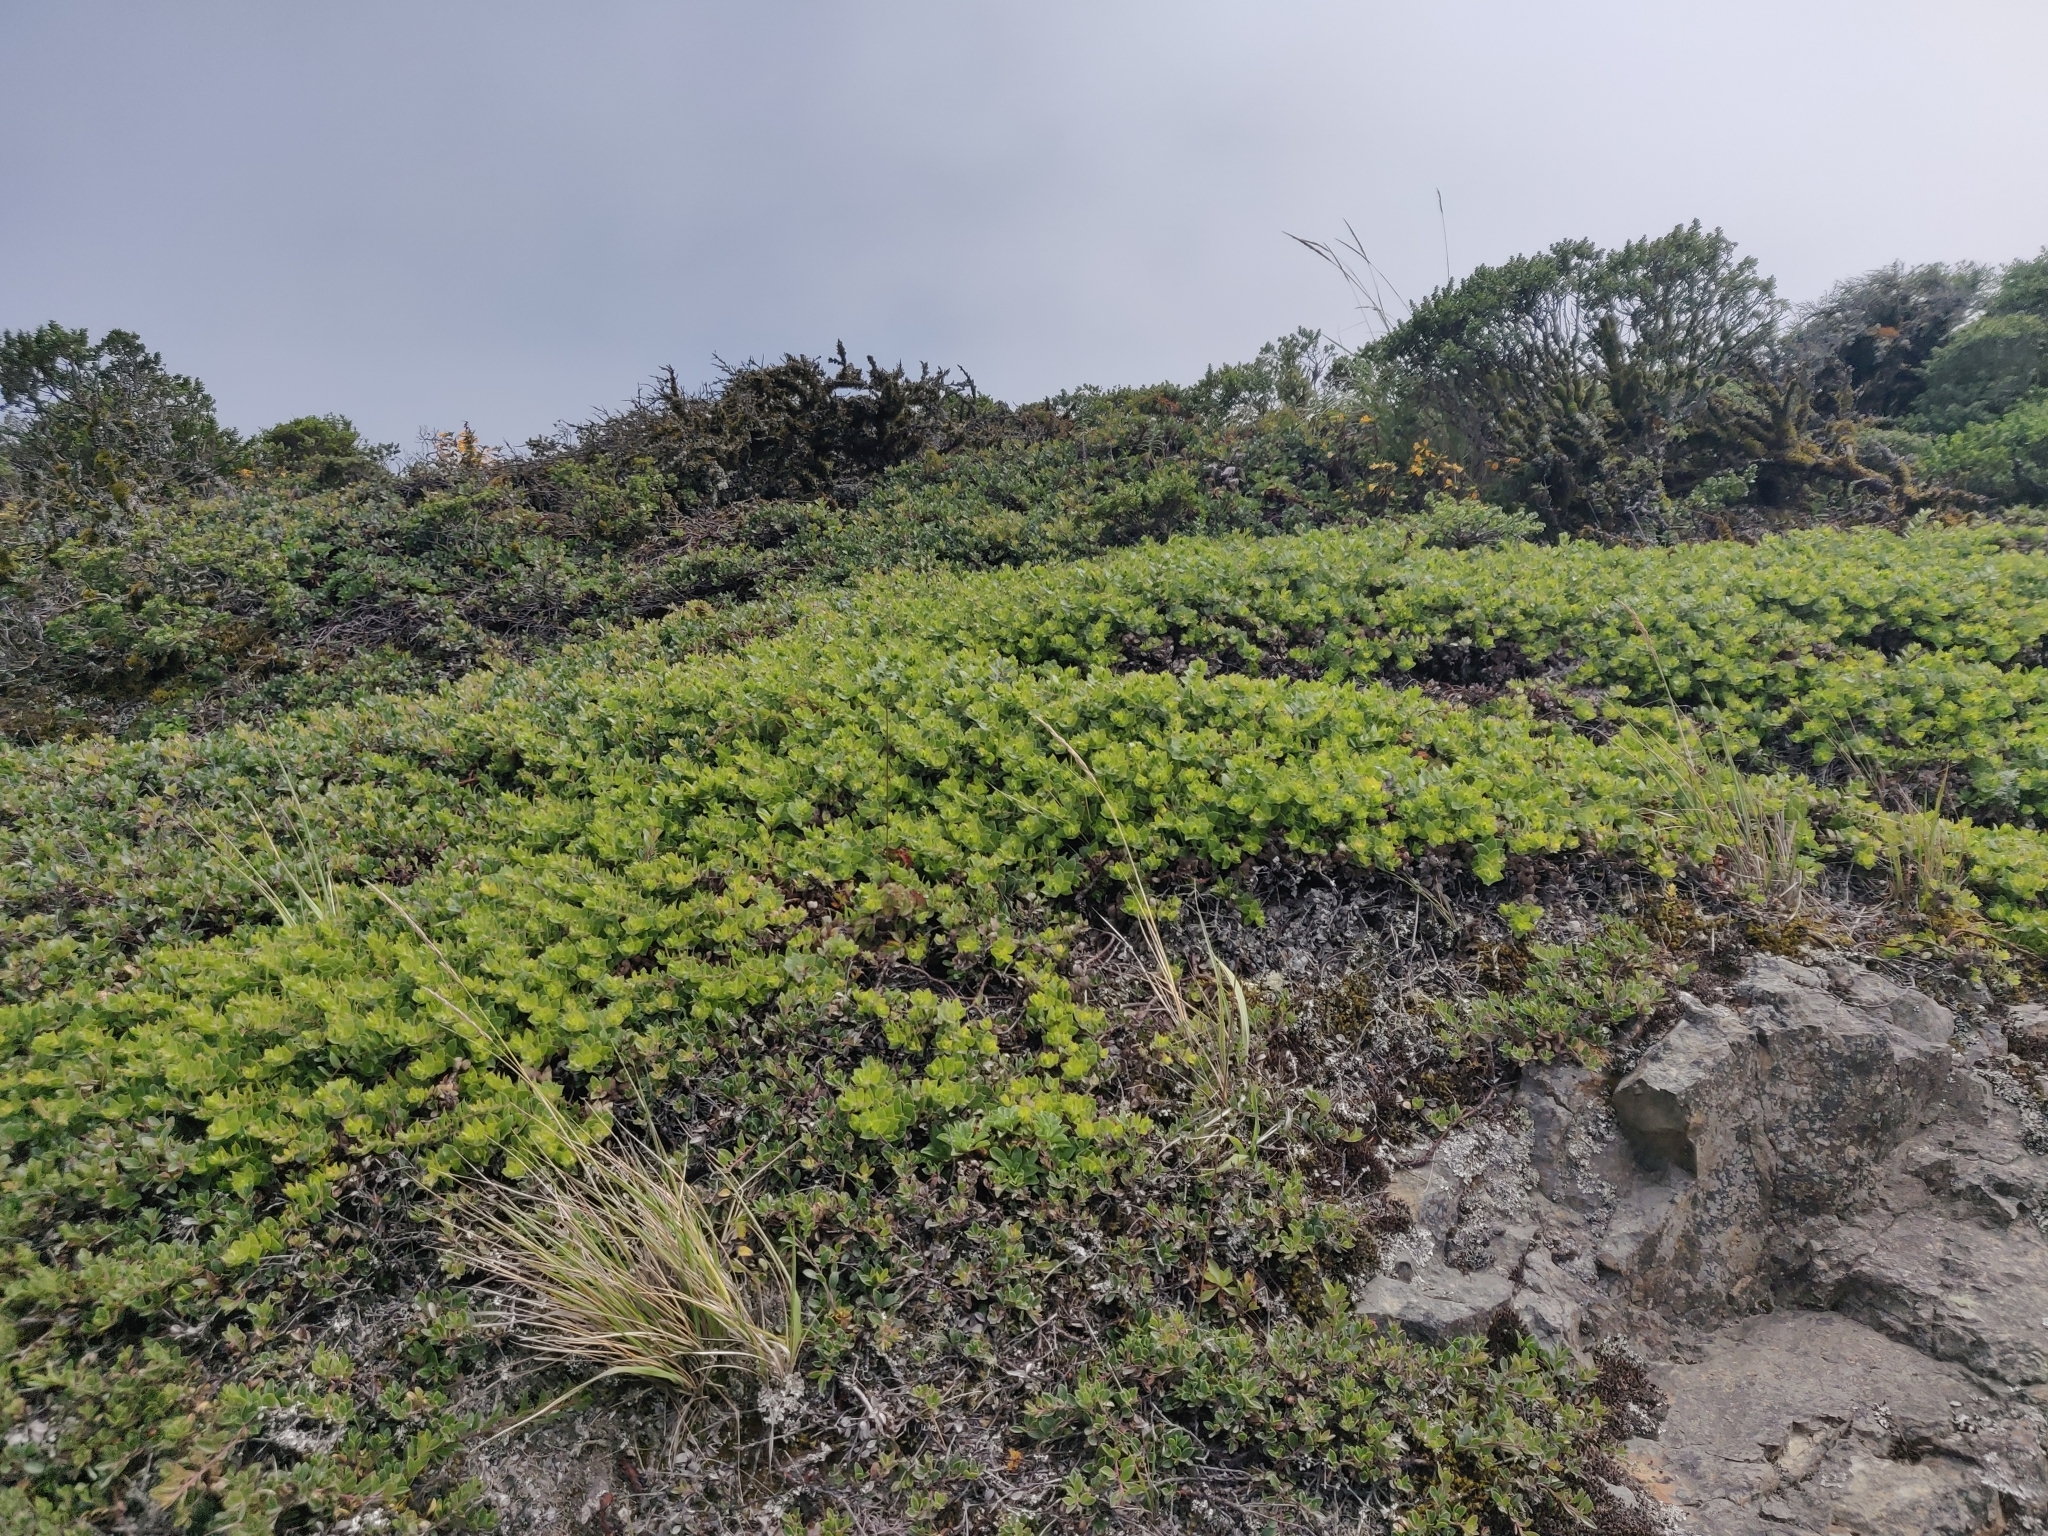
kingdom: Plantae
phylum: Tracheophyta
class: Magnoliopsida
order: Ericales
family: Ericaceae
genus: Arctostaphylos
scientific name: Arctostaphylos imbricata
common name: San bruno mountain manzanita
